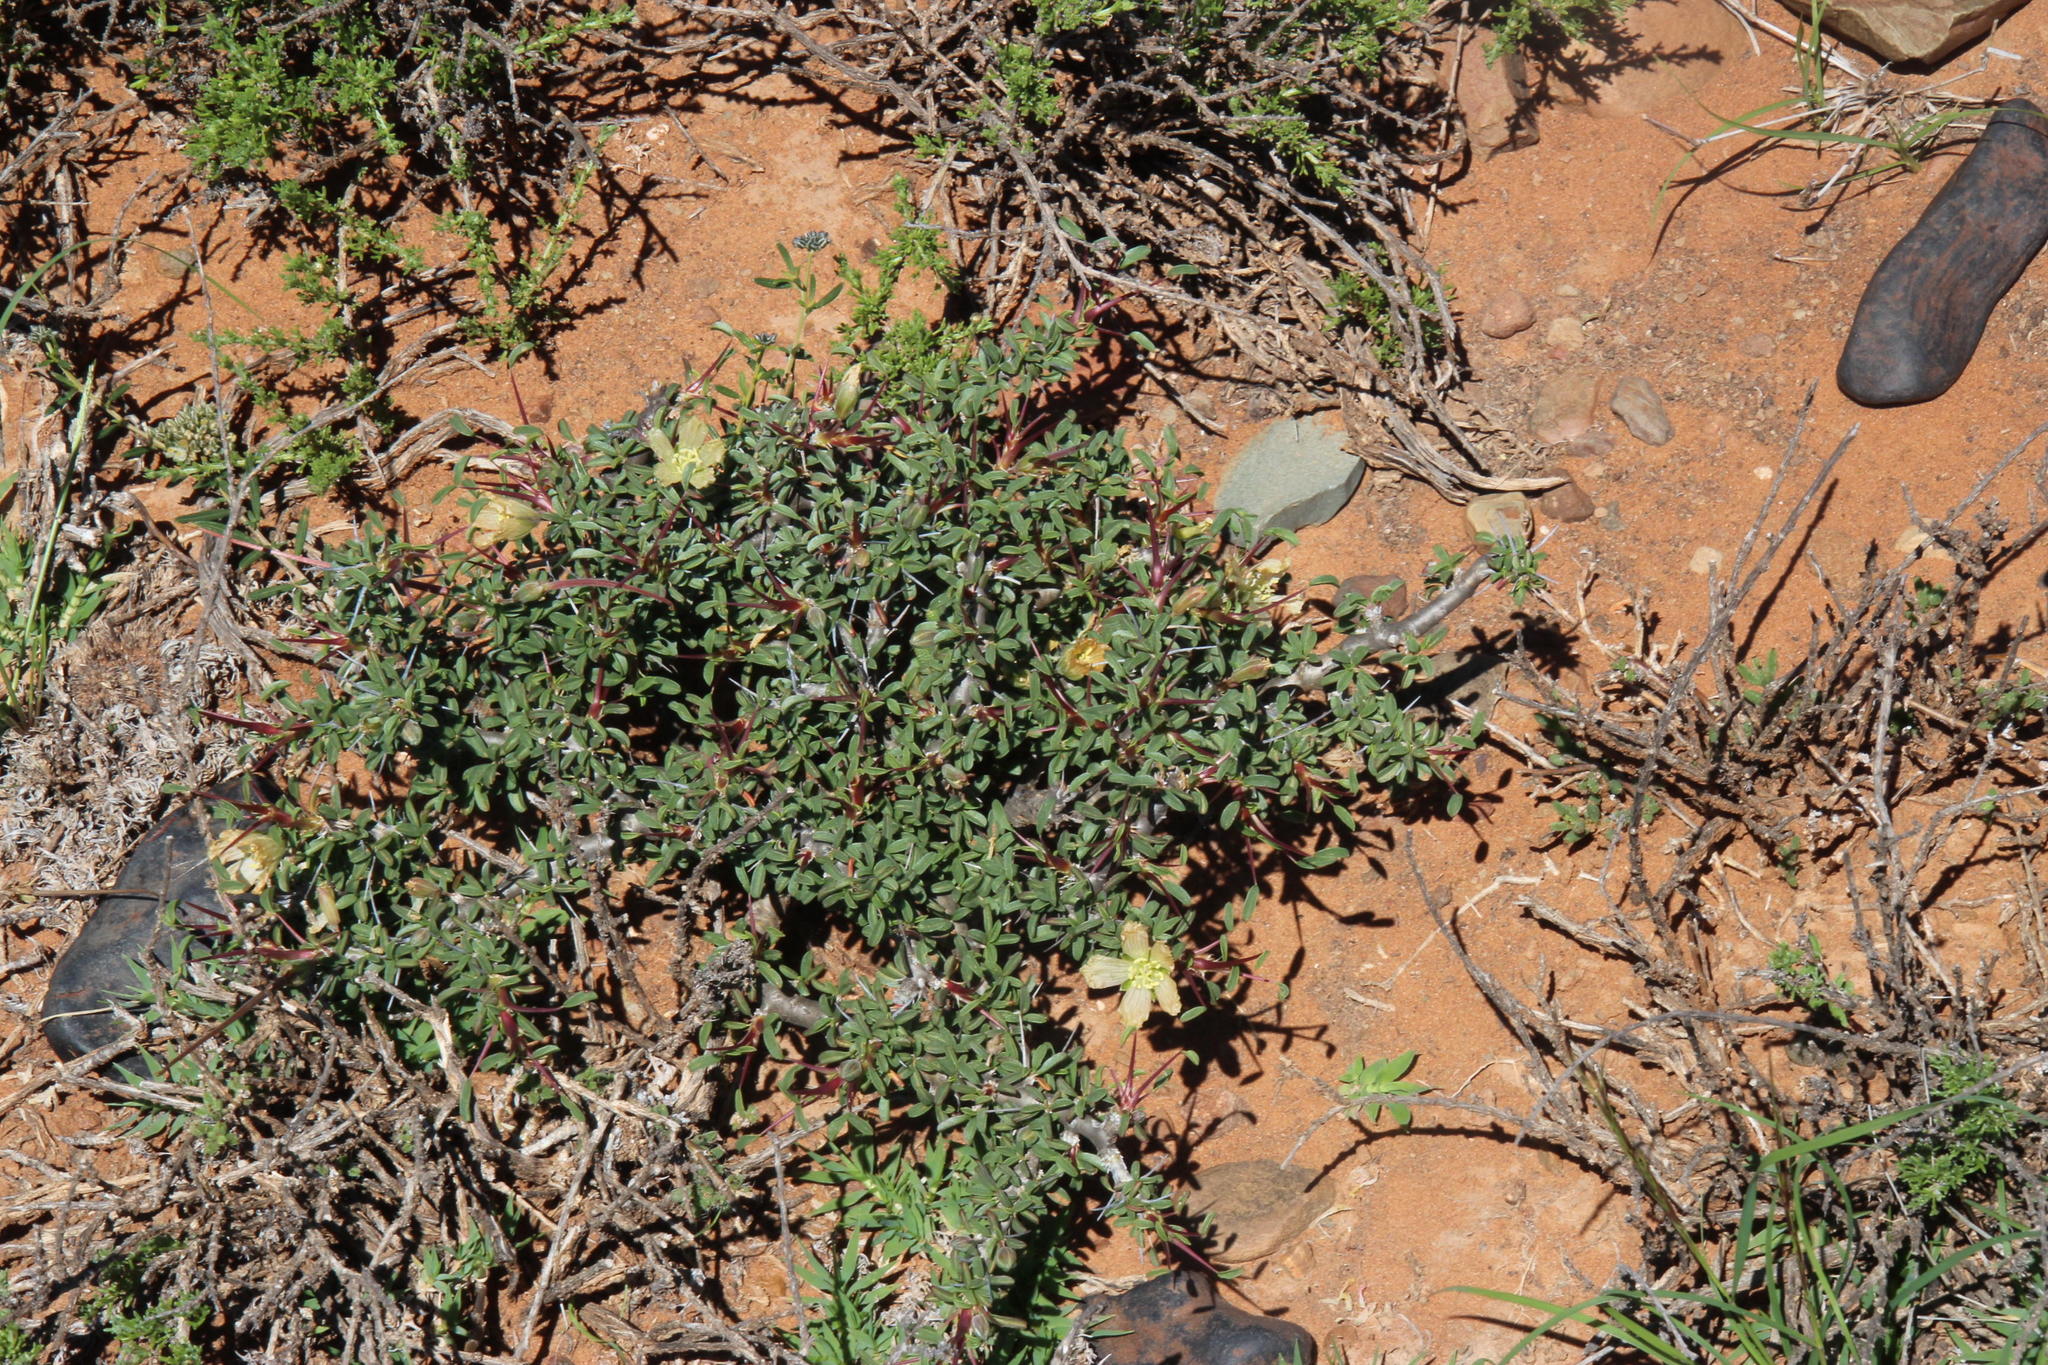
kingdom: Plantae
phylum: Tracheophyta
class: Magnoliopsida
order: Geraniales
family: Geraniaceae
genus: Monsonia
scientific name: Monsonia salmoniflora
